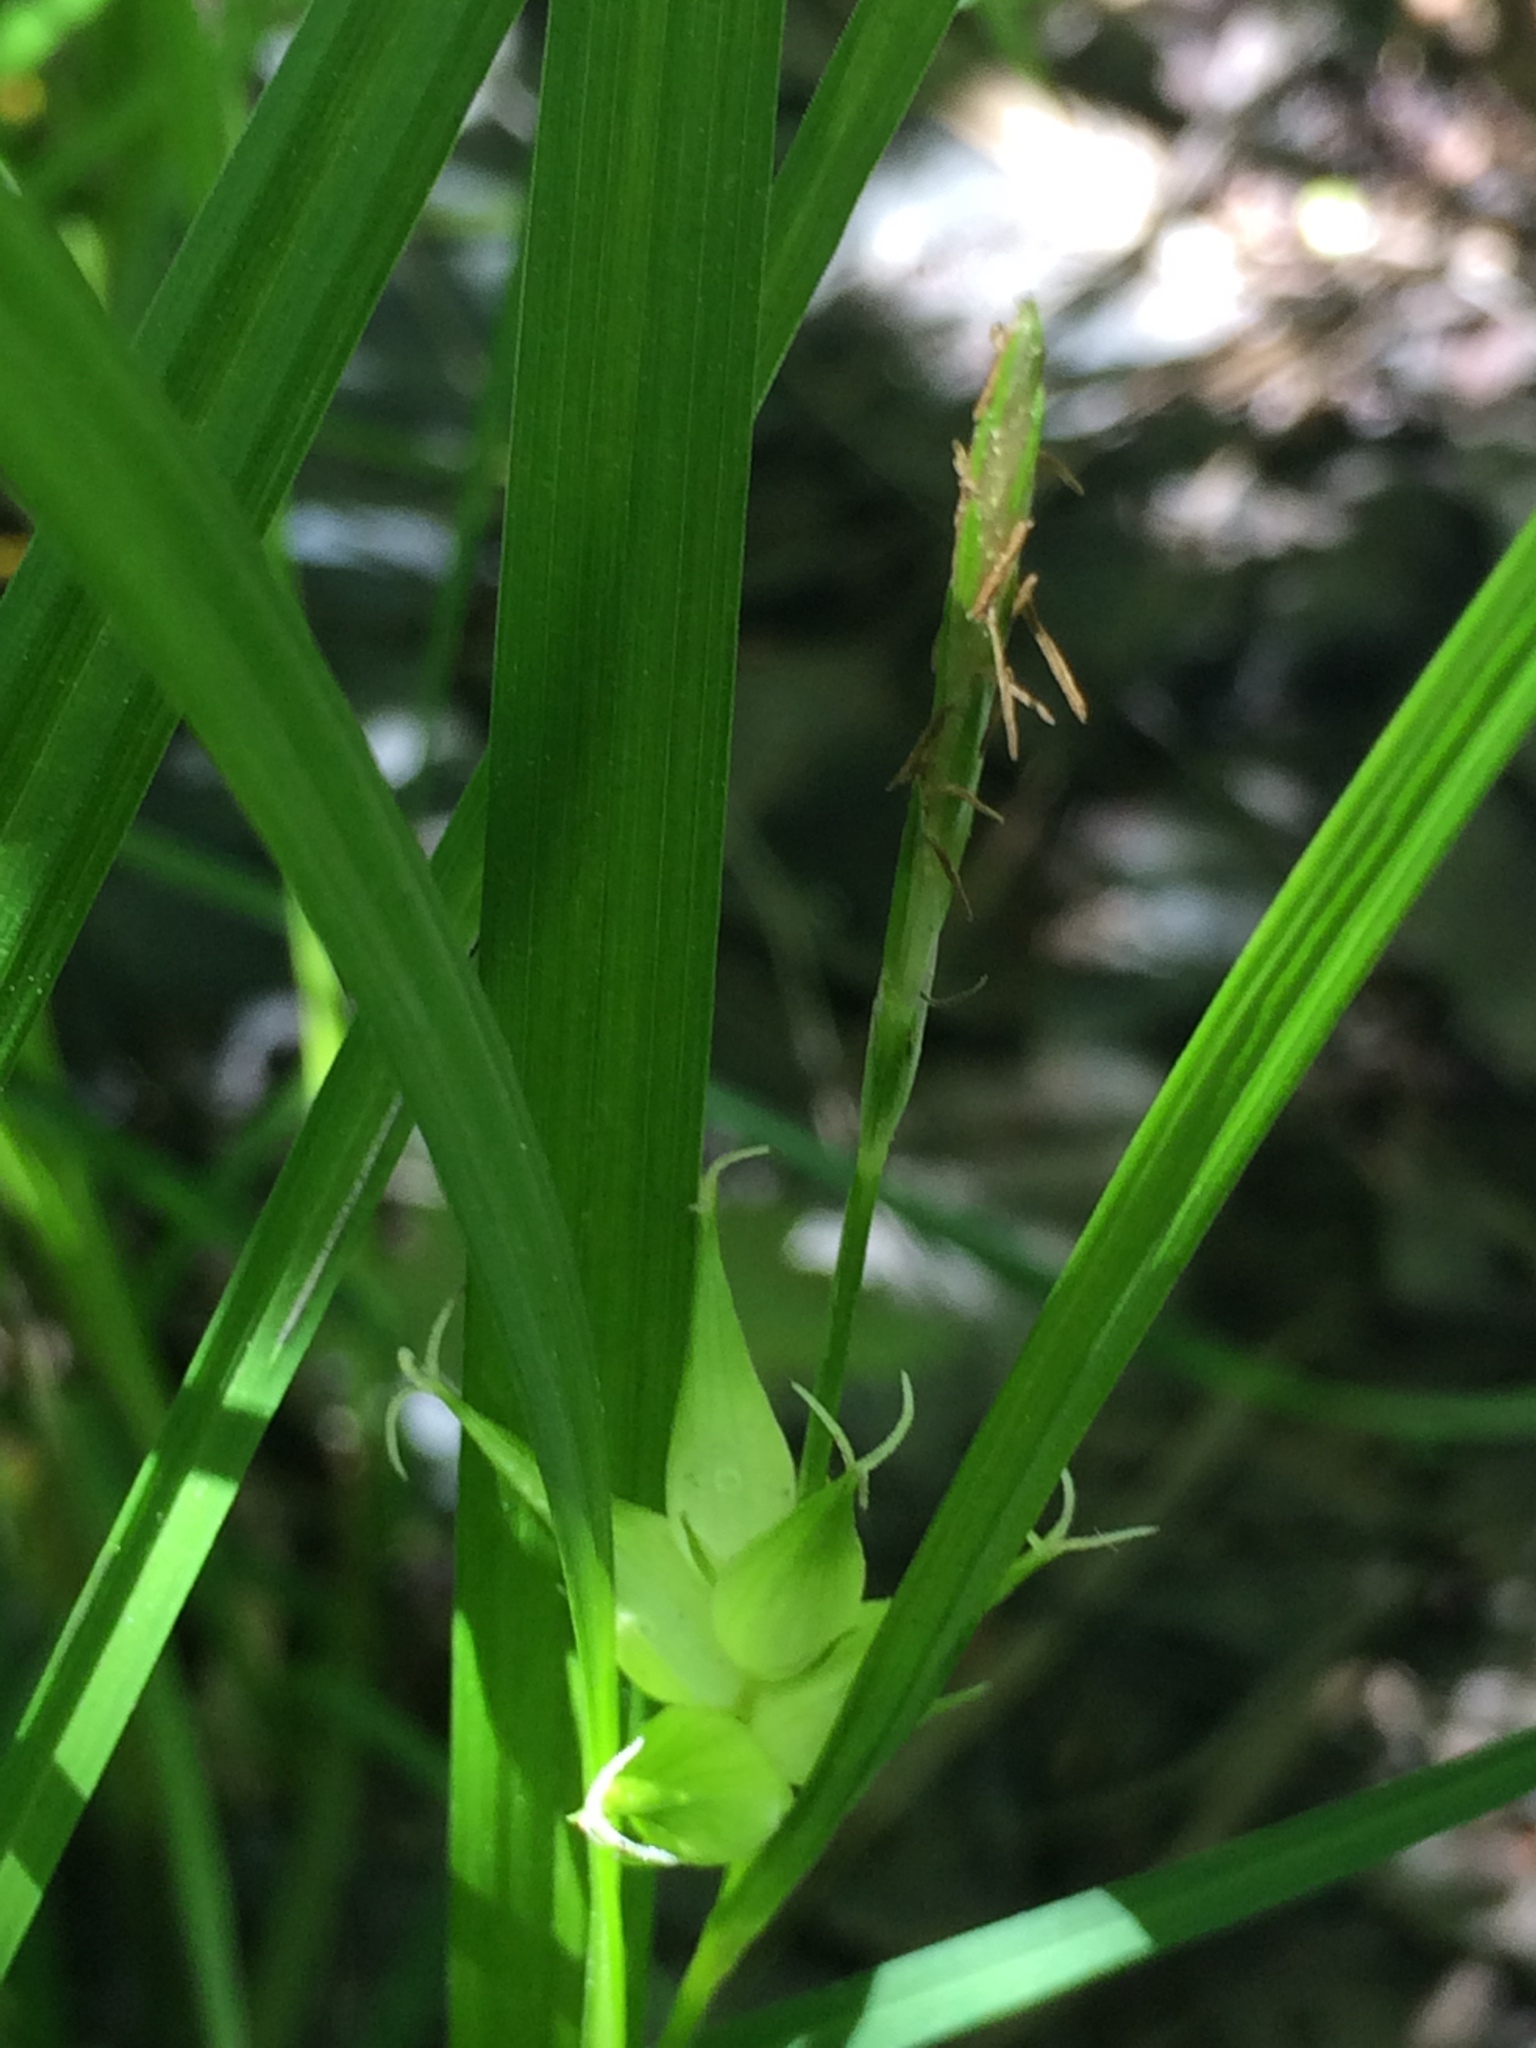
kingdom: Plantae
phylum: Tracheophyta
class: Liliopsida
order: Poales
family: Cyperaceae
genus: Carex
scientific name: Carex intumescens
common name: Greater bladder sedge
